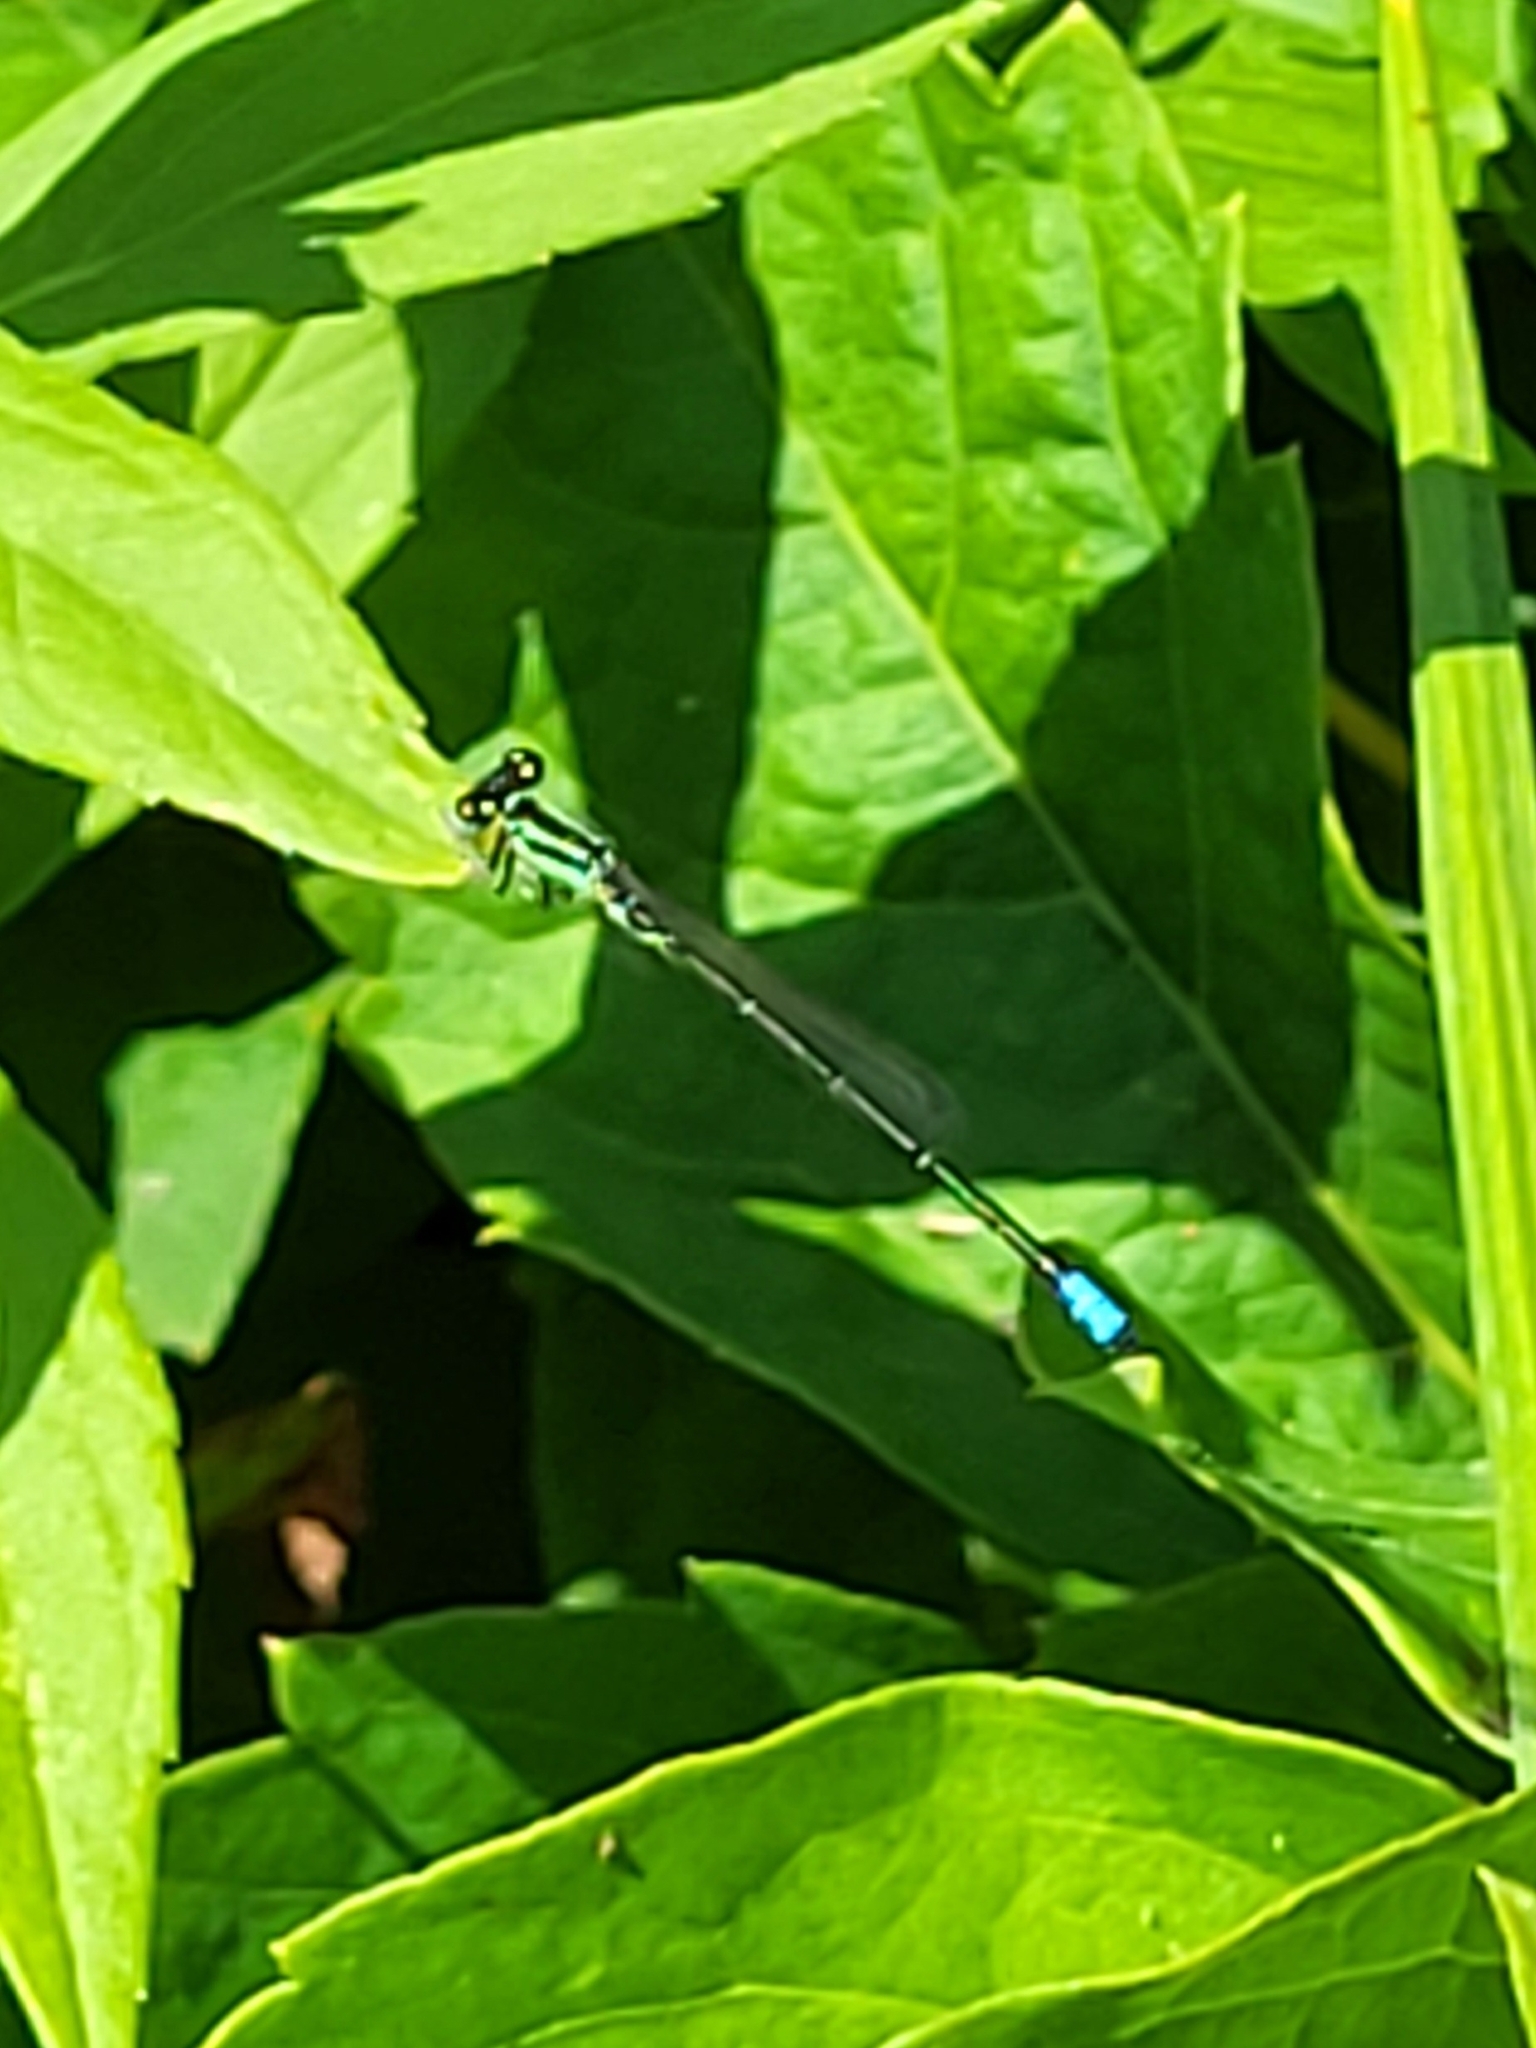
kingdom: Animalia
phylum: Arthropoda
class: Insecta
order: Odonata
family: Coenagrionidae
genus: Ischnura
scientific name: Ischnura verticalis
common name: Eastern forktail
